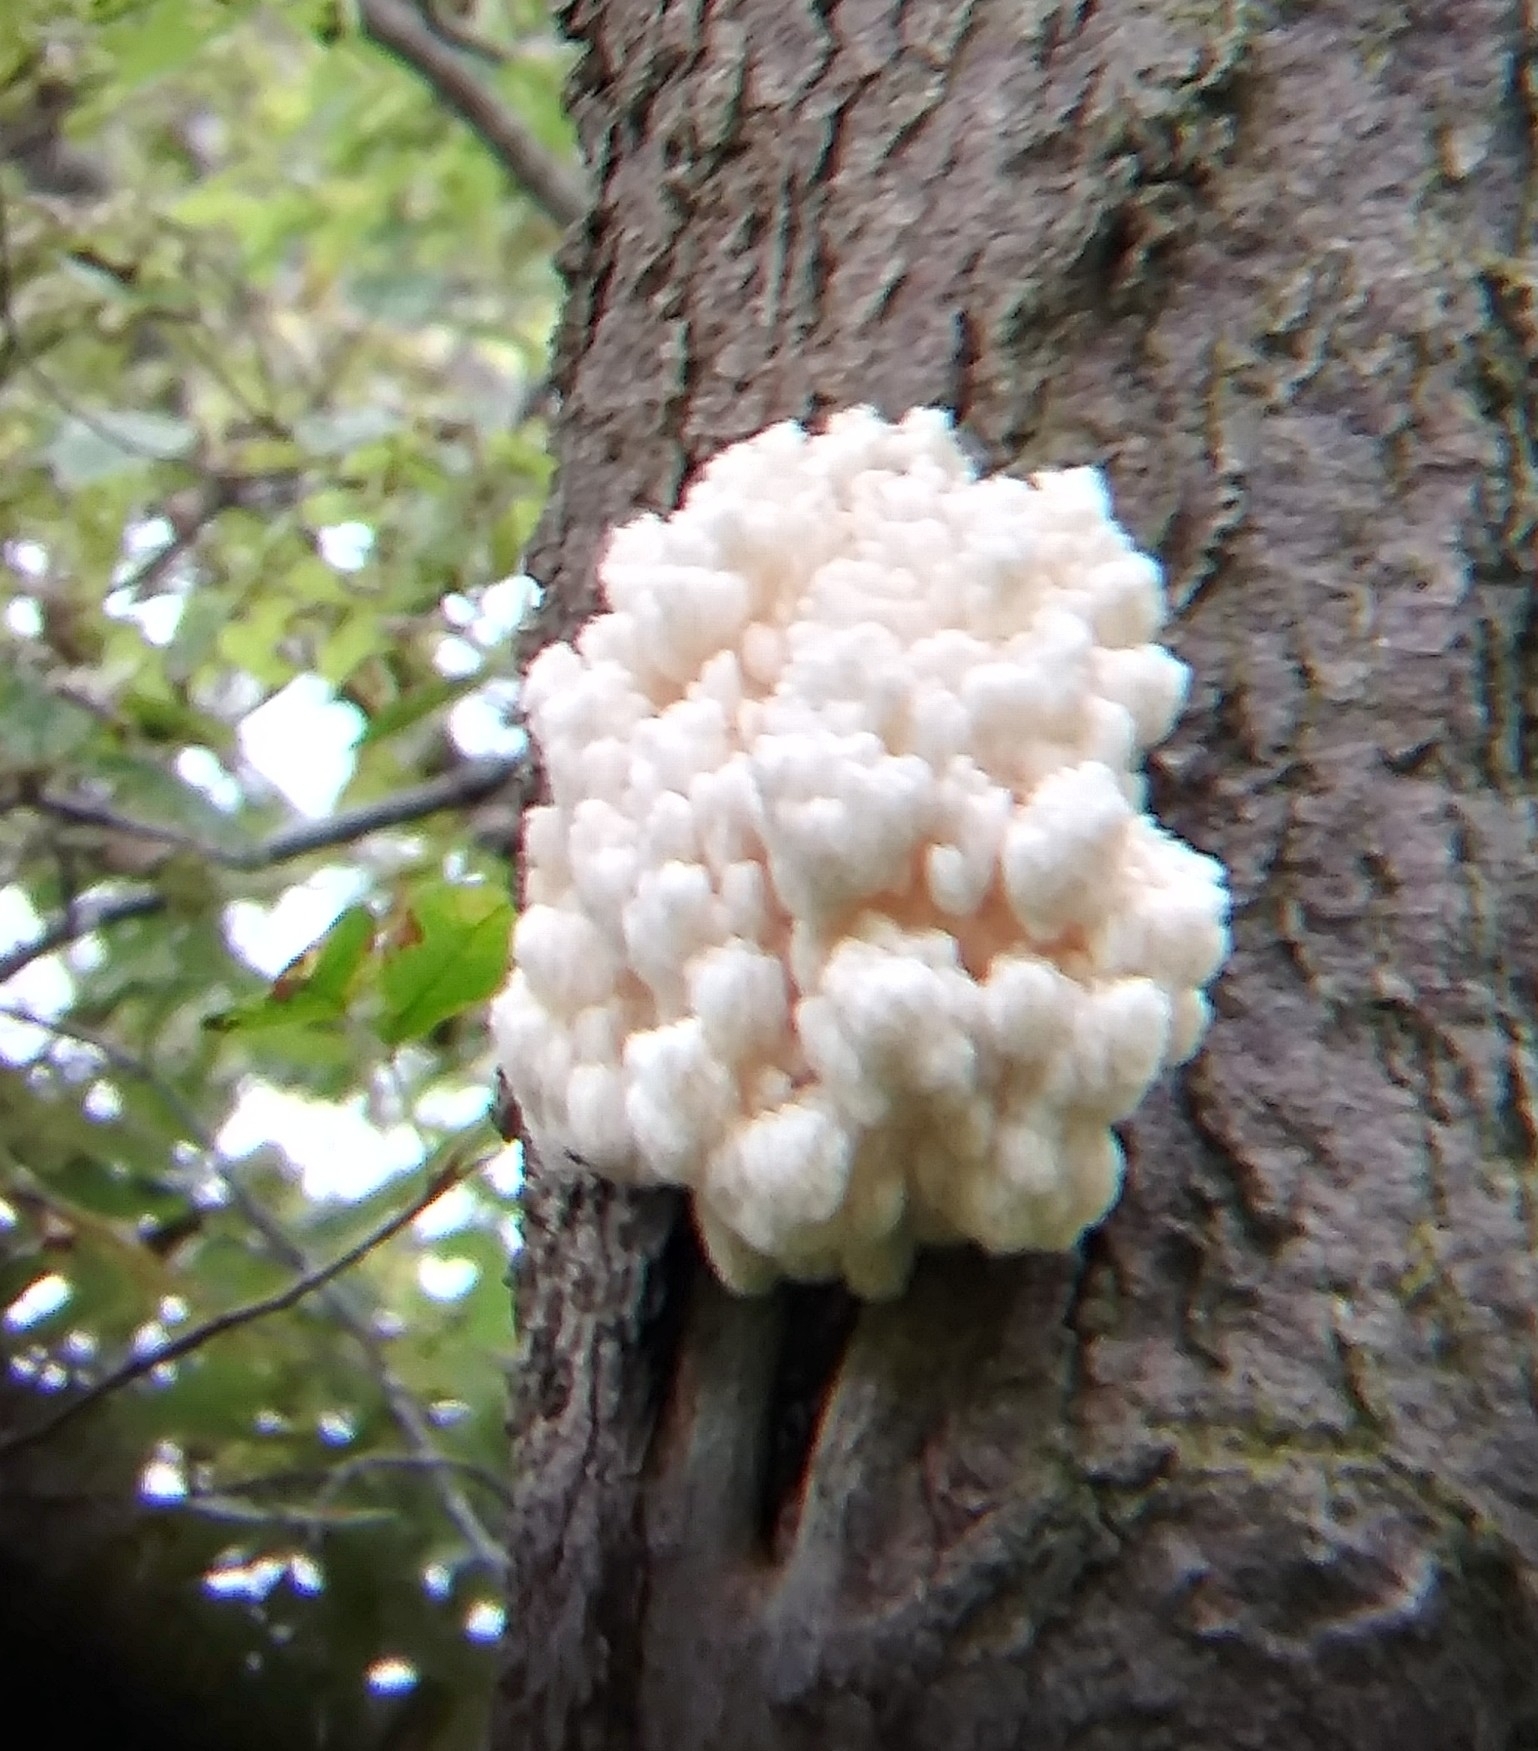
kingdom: Fungi
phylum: Basidiomycota
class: Agaricomycetes
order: Russulales
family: Hericiaceae
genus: Hericium
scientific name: Hericium americanum
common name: Bear's head tooth
